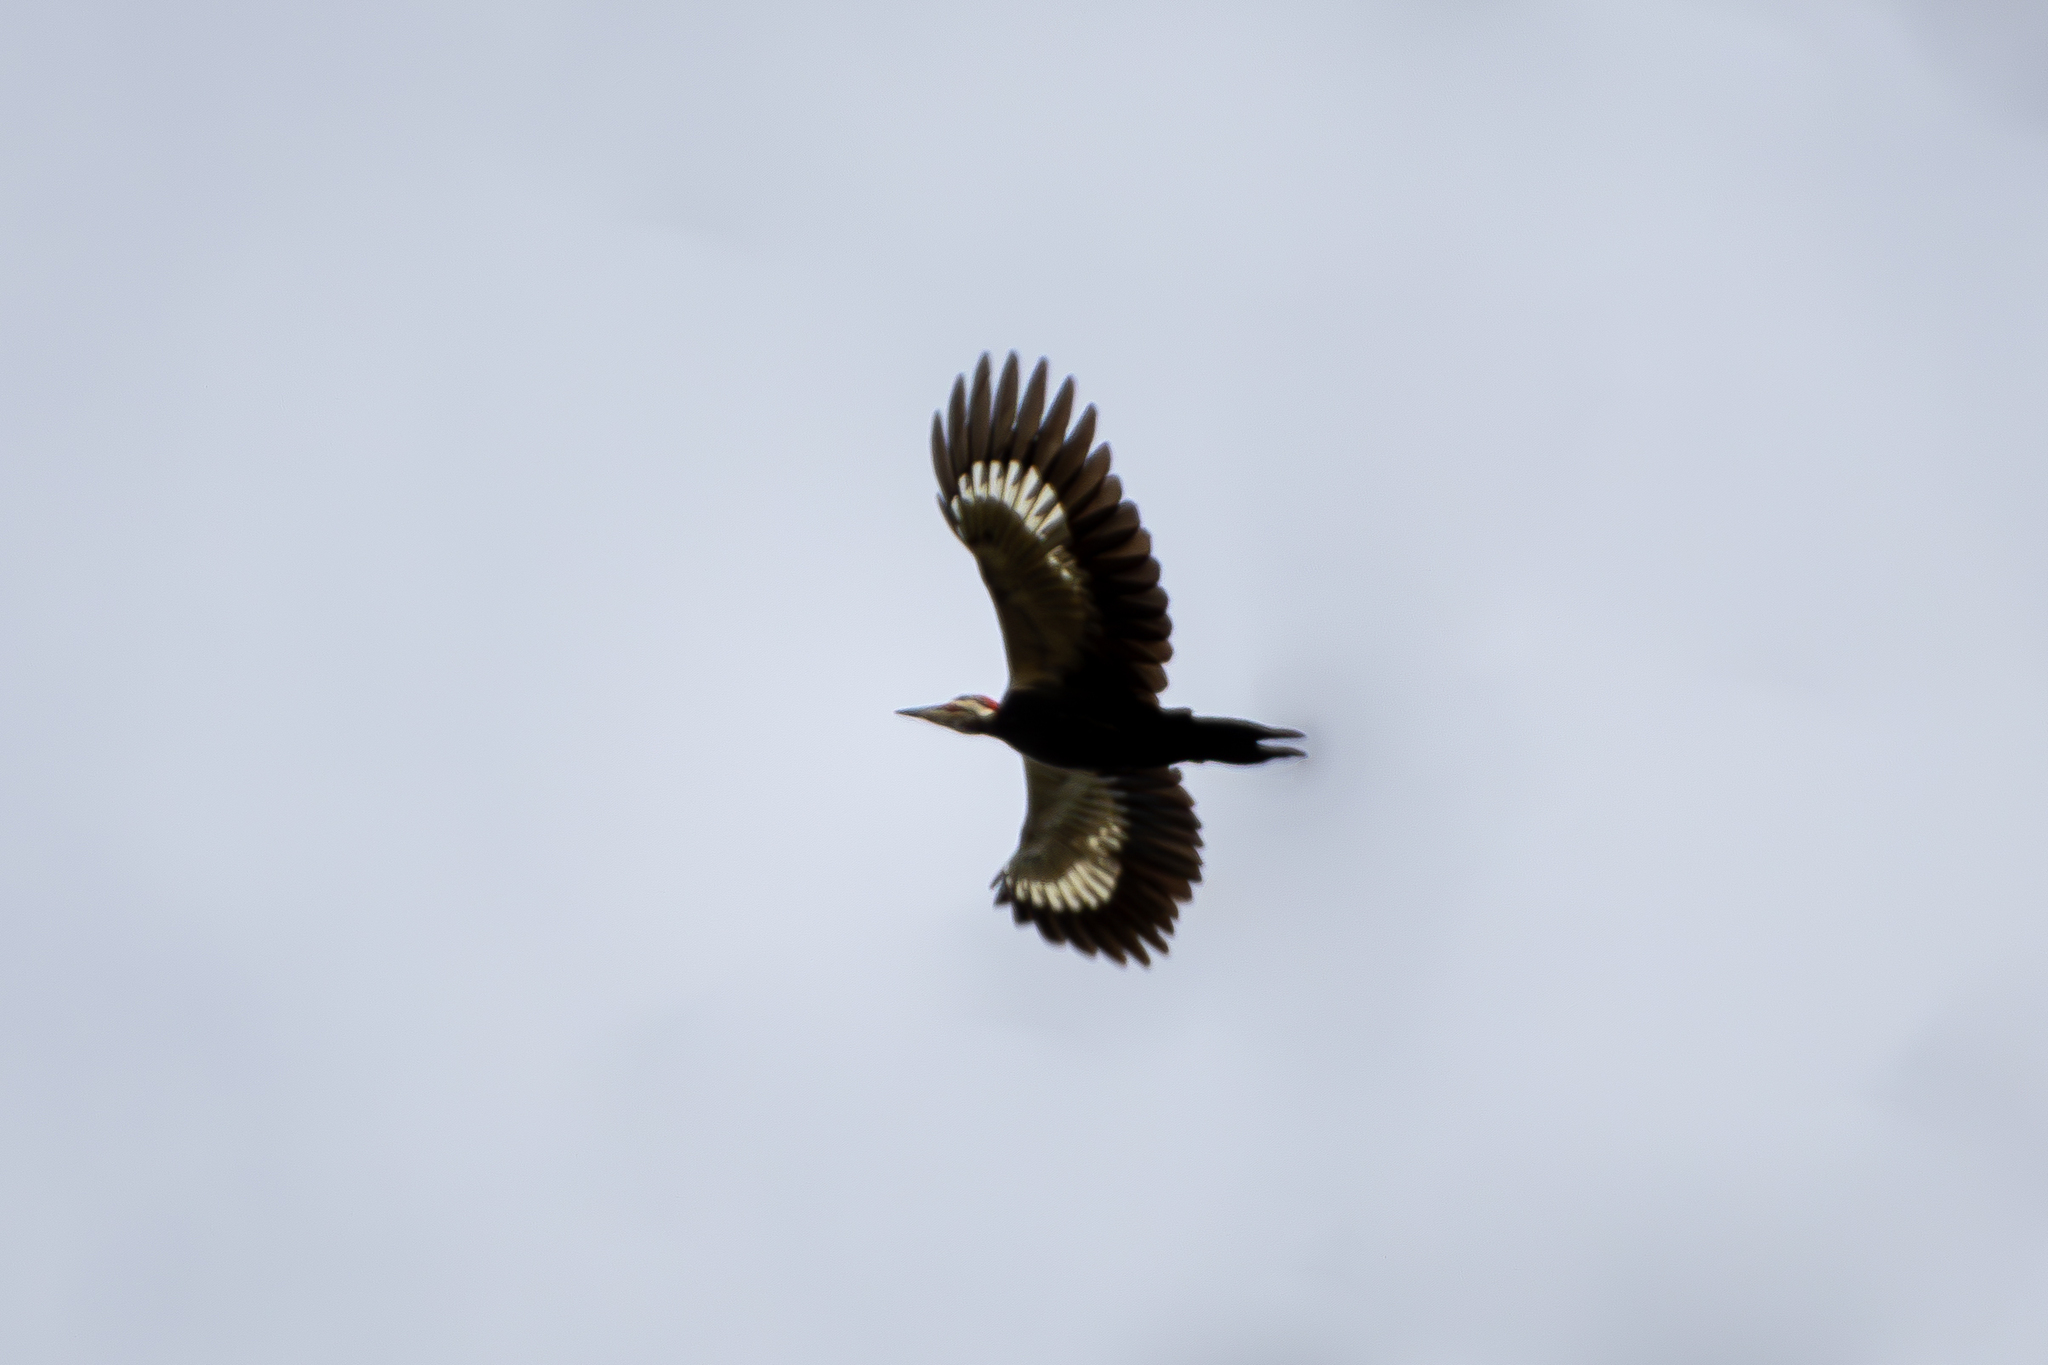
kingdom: Animalia
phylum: Chordata
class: Aves
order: Piciformes
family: Picidae
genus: Dryocopus
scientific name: Dryocopus pileatus
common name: Pileated woodpecker
